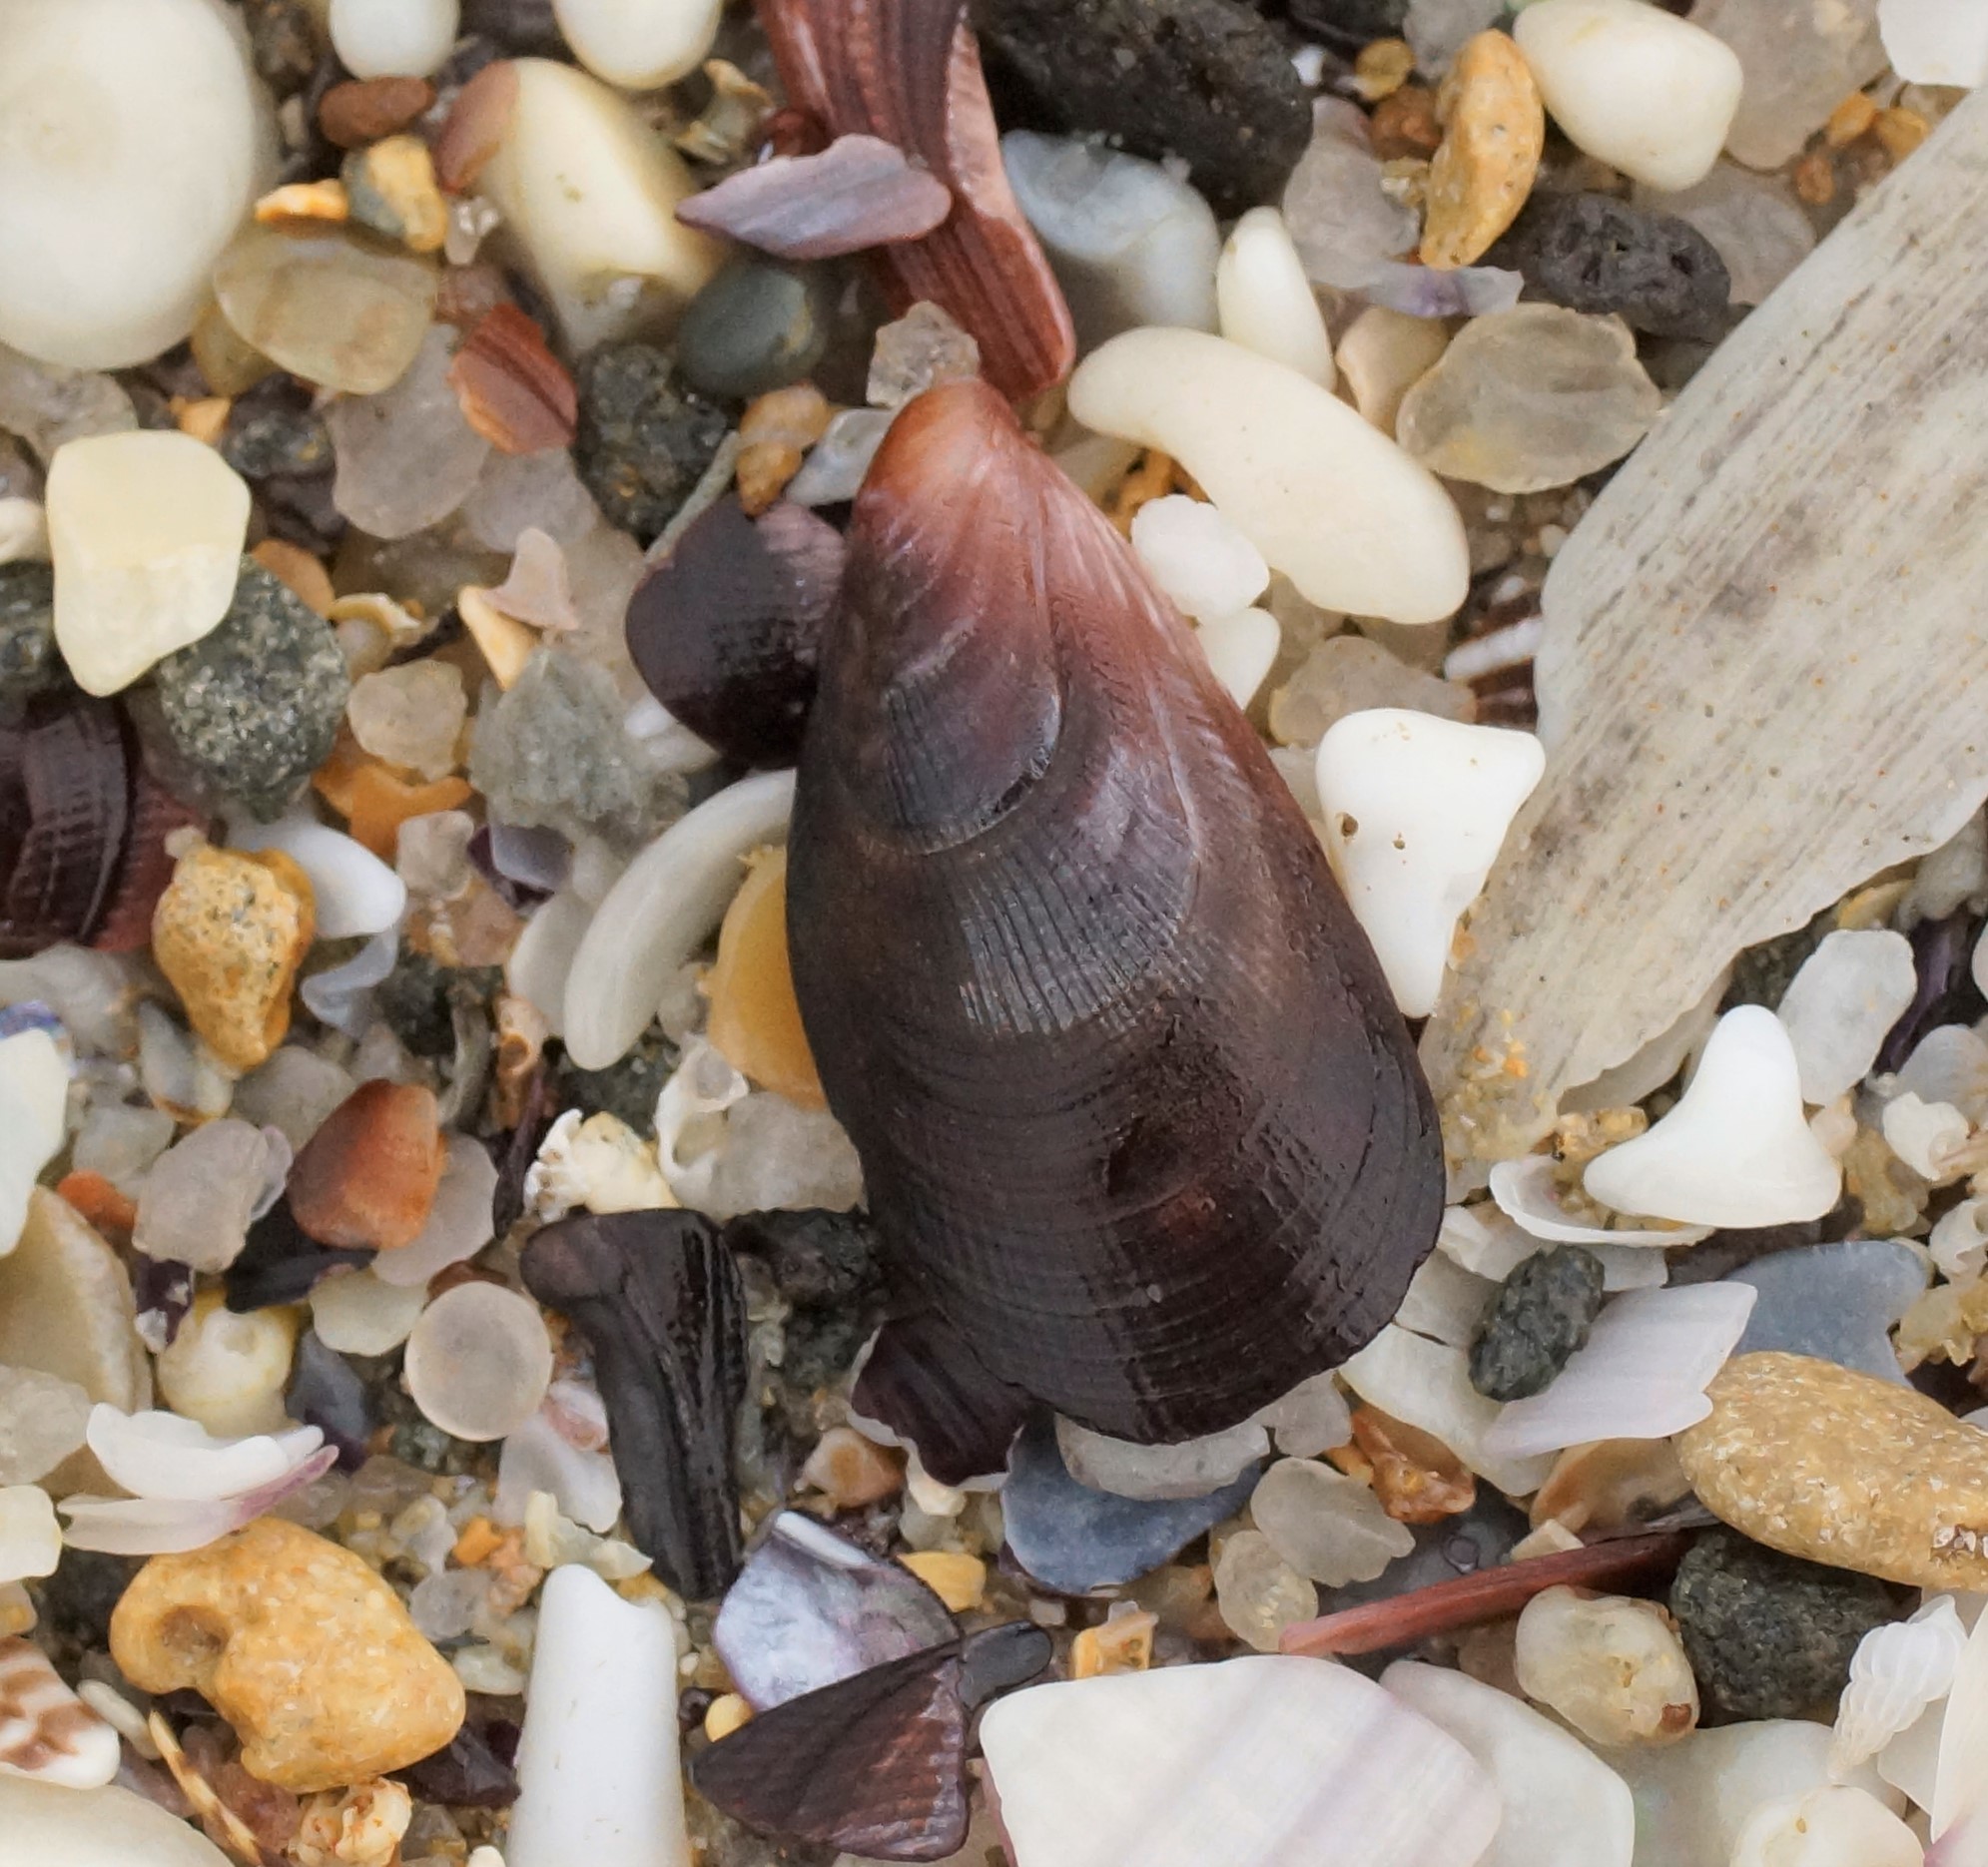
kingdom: Animalia
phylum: Mollusca
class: Bivalvia
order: Mytilida
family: Mytilidae
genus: Brachidontes
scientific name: Brachidontes rostratus
